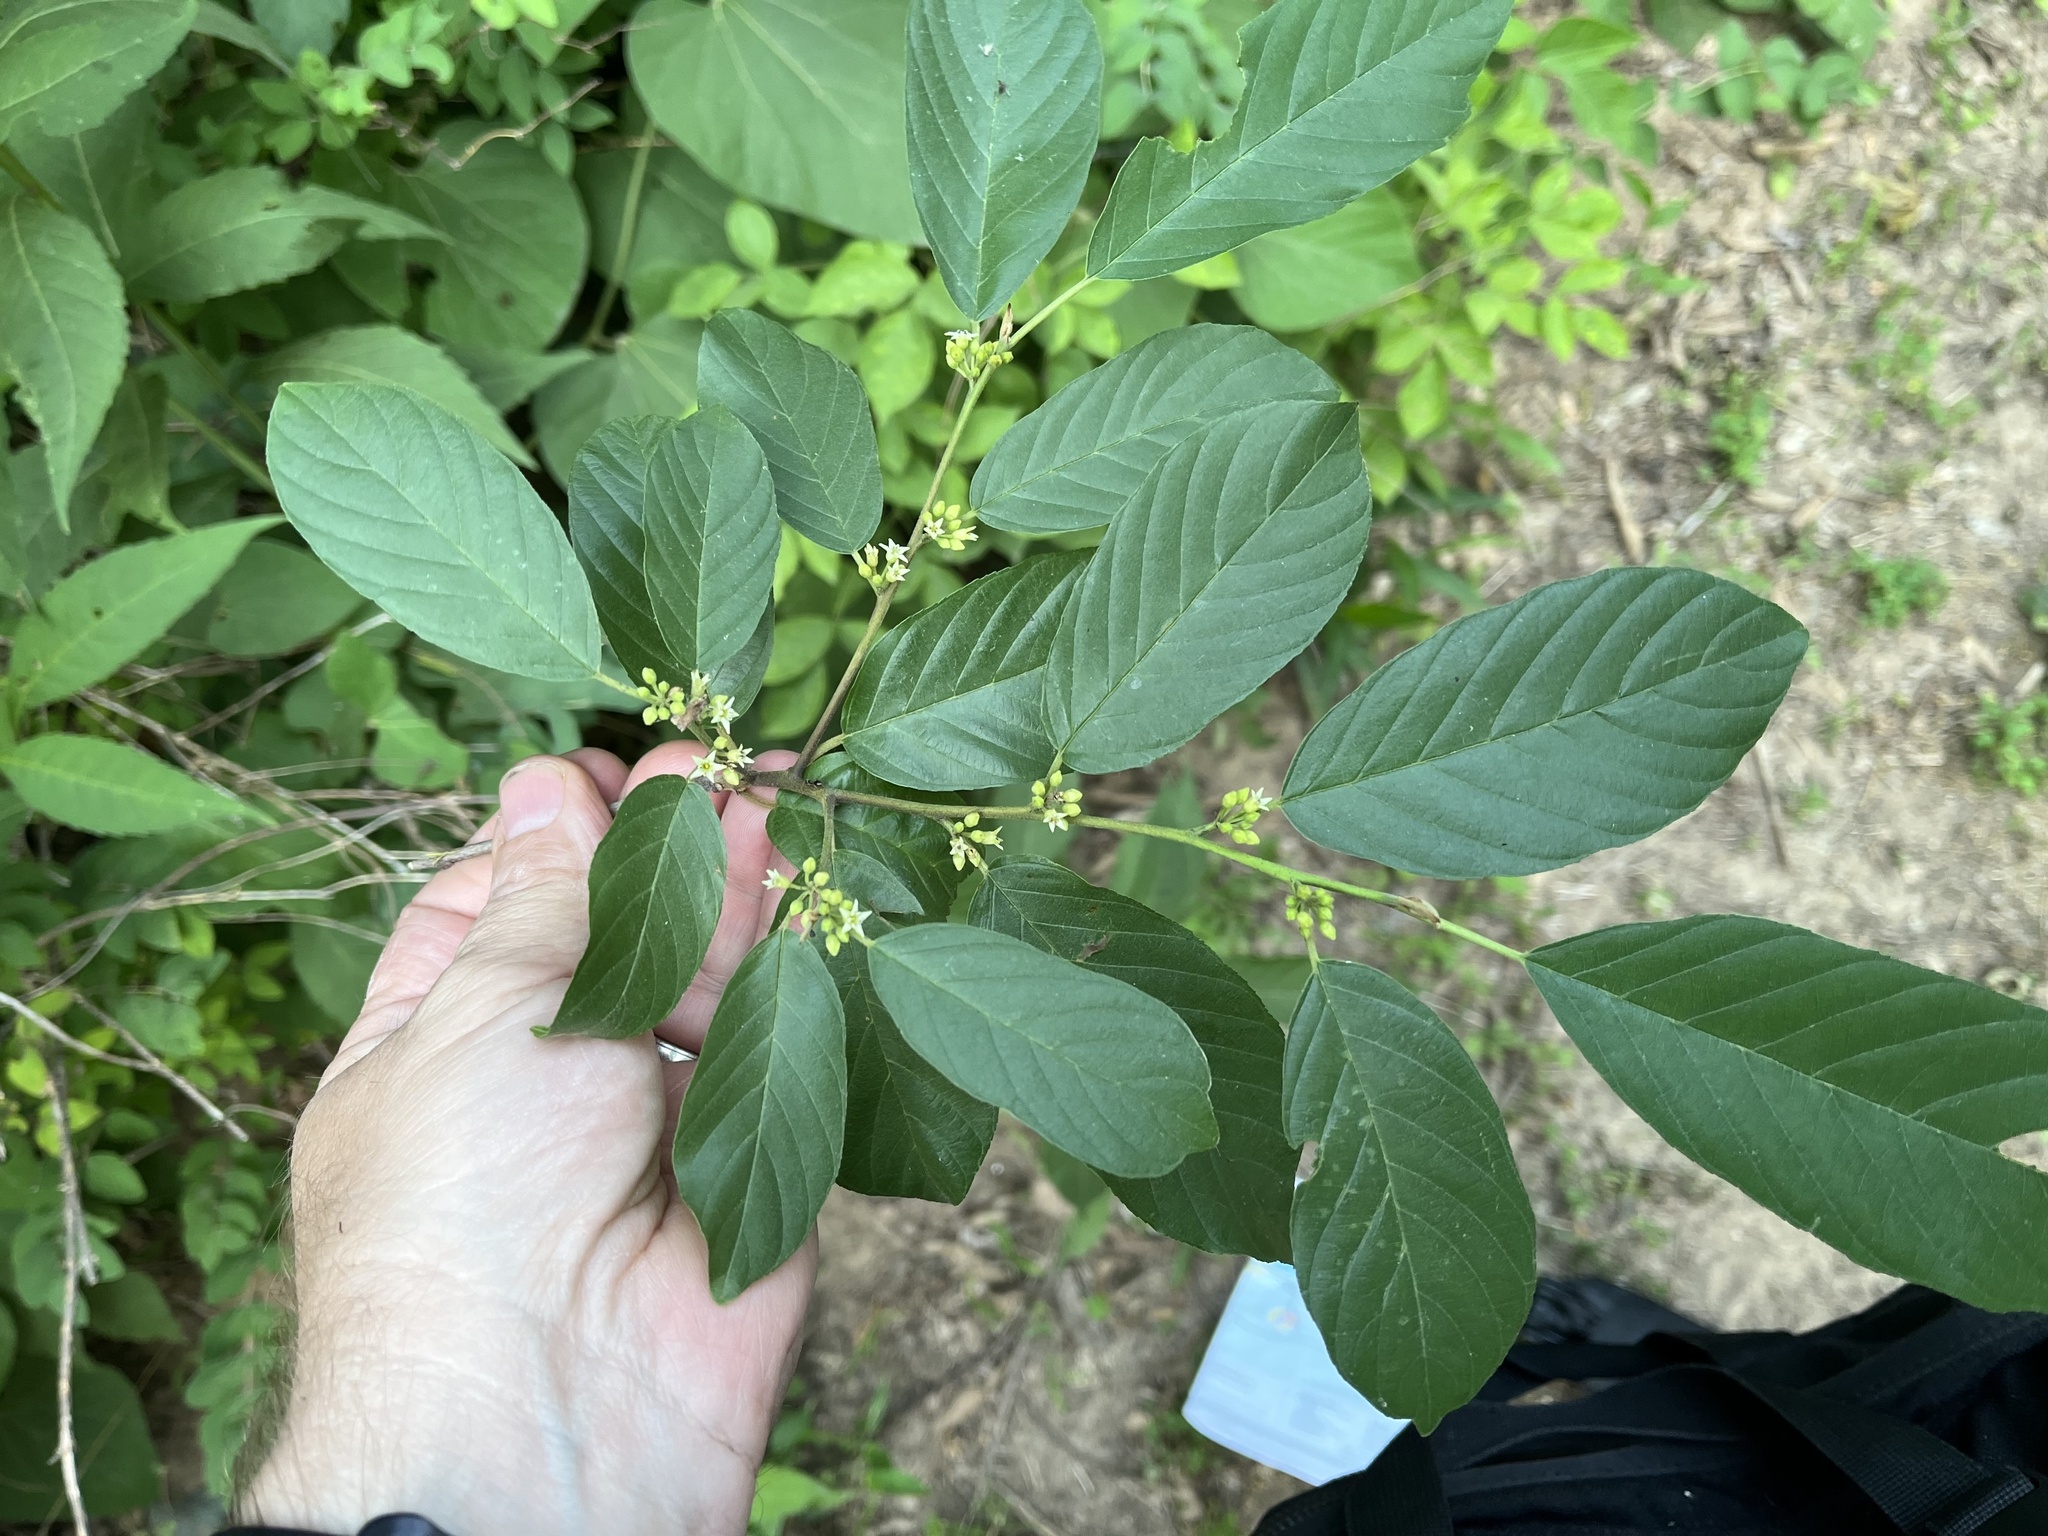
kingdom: Plantae
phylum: Tracheophyta
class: Magnoliopsida
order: Rosales
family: Rhamnaceae
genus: Frangula
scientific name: Frangula caroliniana
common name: Carolina buckthorn
